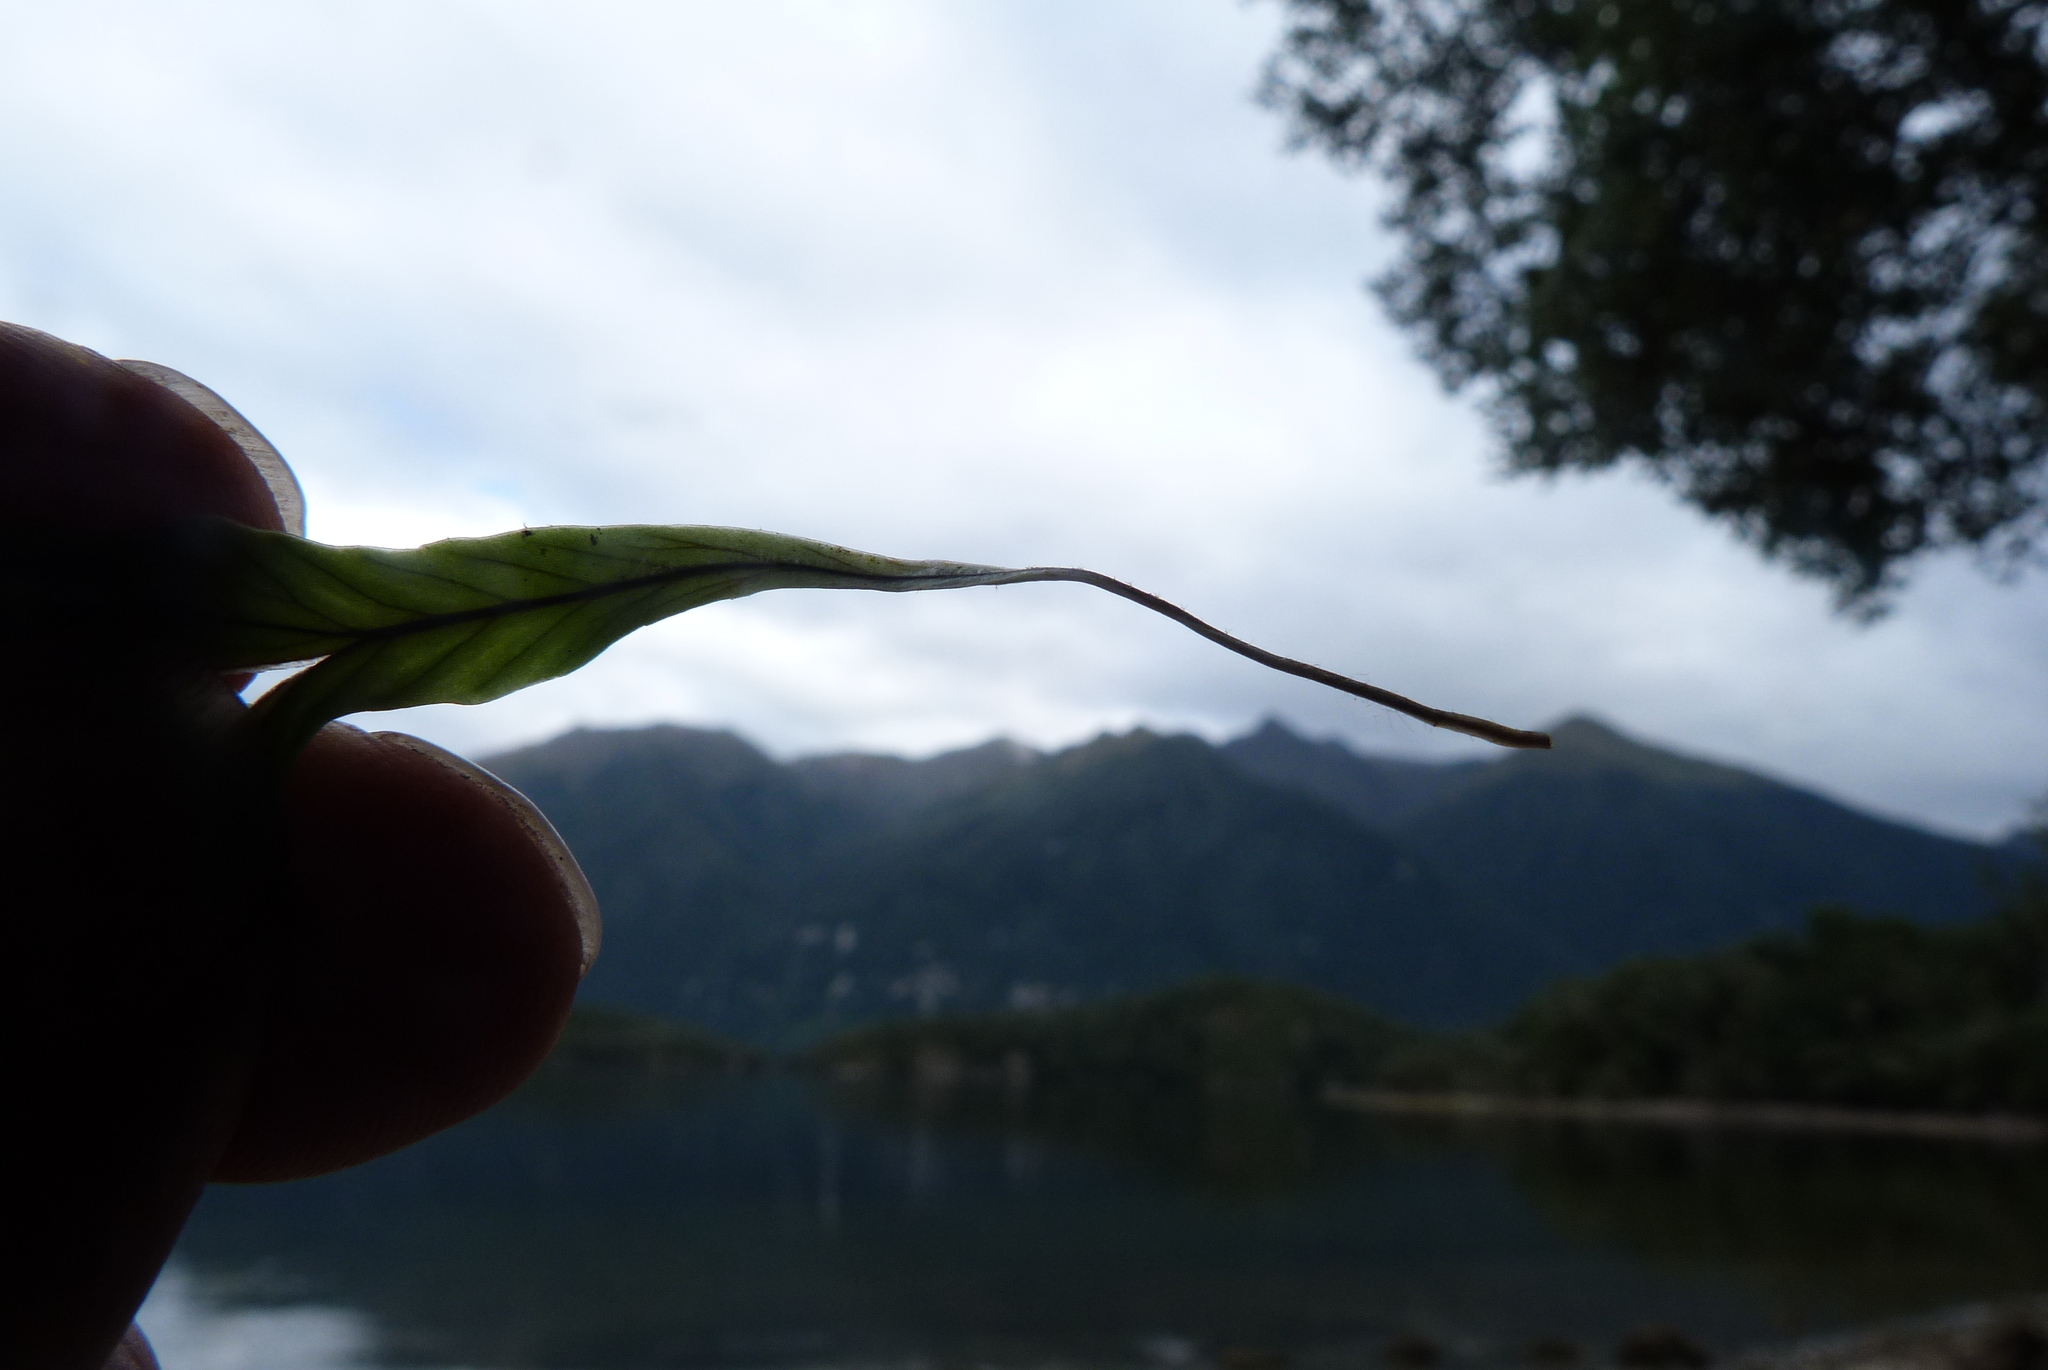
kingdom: Plantae
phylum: Tracheophyta
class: Polypodiopsida
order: Polypodiales
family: Polypodiaceae
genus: Notogrammitis
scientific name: Notogrammitis billardierei
